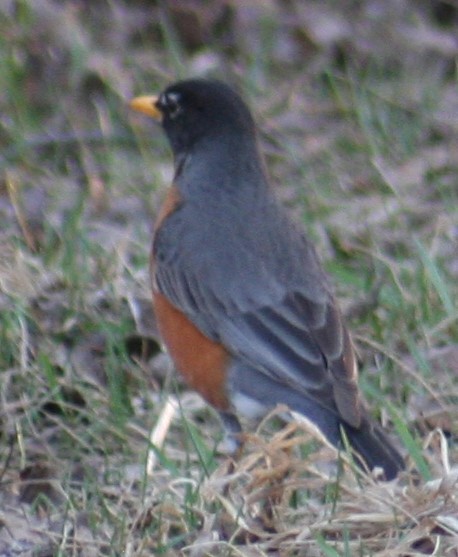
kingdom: Animalia
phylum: Chordata
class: Aves
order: Passeriformes
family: Turdidae
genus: Turdus
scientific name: Turdus migratorius
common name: American robin
